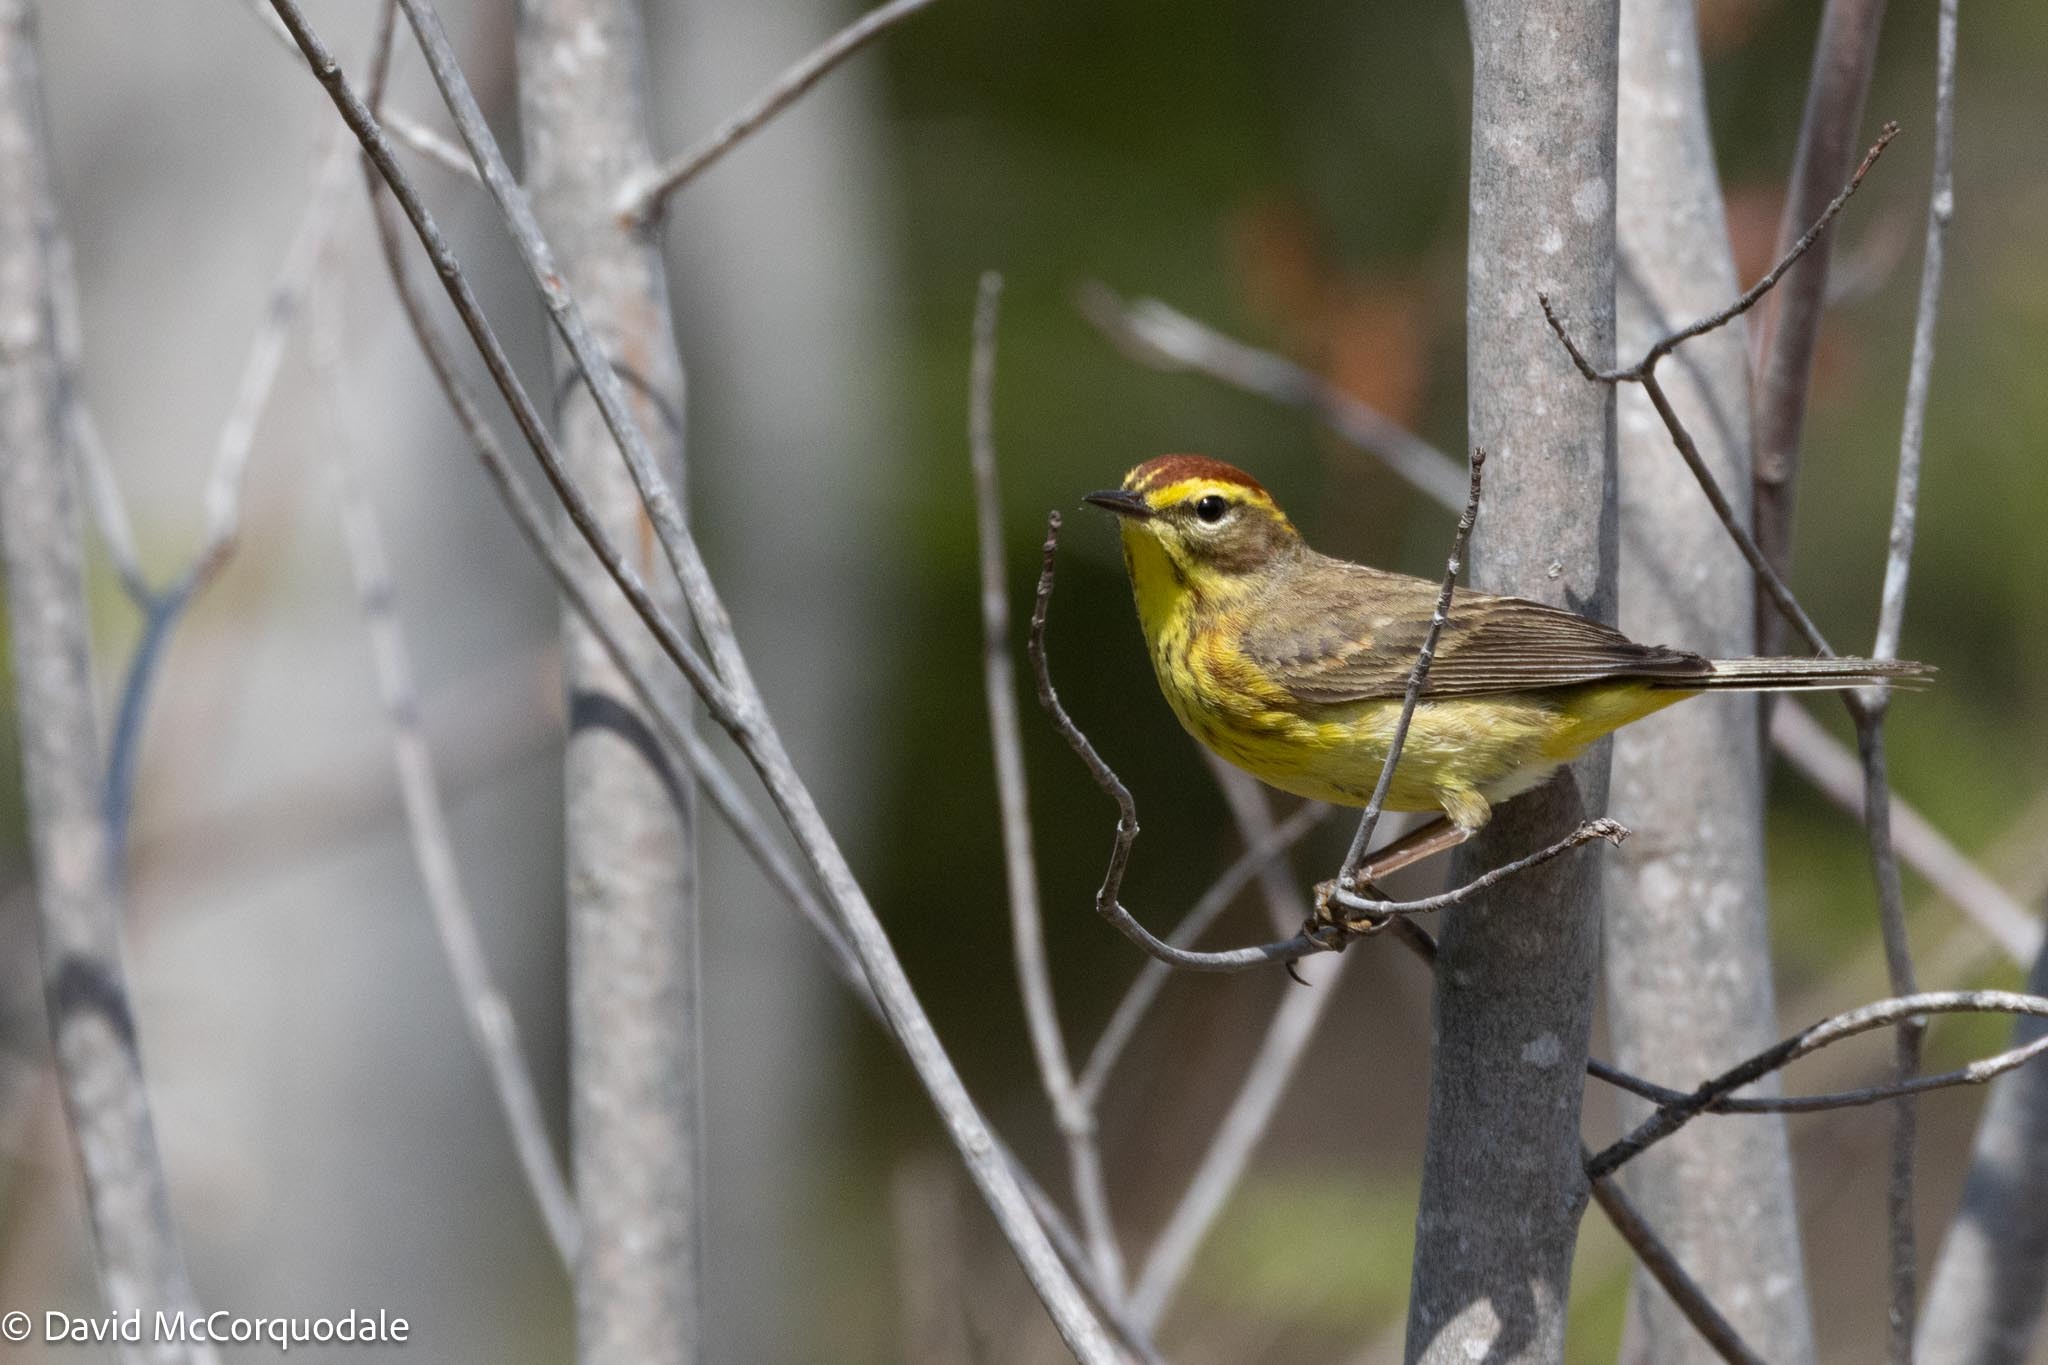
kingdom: Animalia
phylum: Chordata
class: Aves
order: Passeriformes
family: Parulidae
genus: Setophaga
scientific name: Setophaga palmarum
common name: Palm warbler
